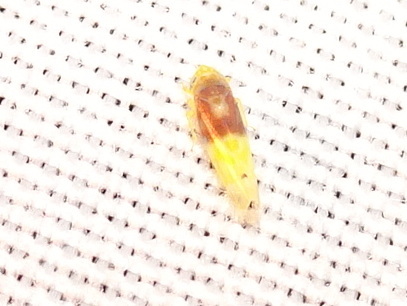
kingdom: Animalia
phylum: Arthropoda
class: Insecta
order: Hemiptera
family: Cicadellidae
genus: Eratoneura
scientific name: Eratoneura affinis
